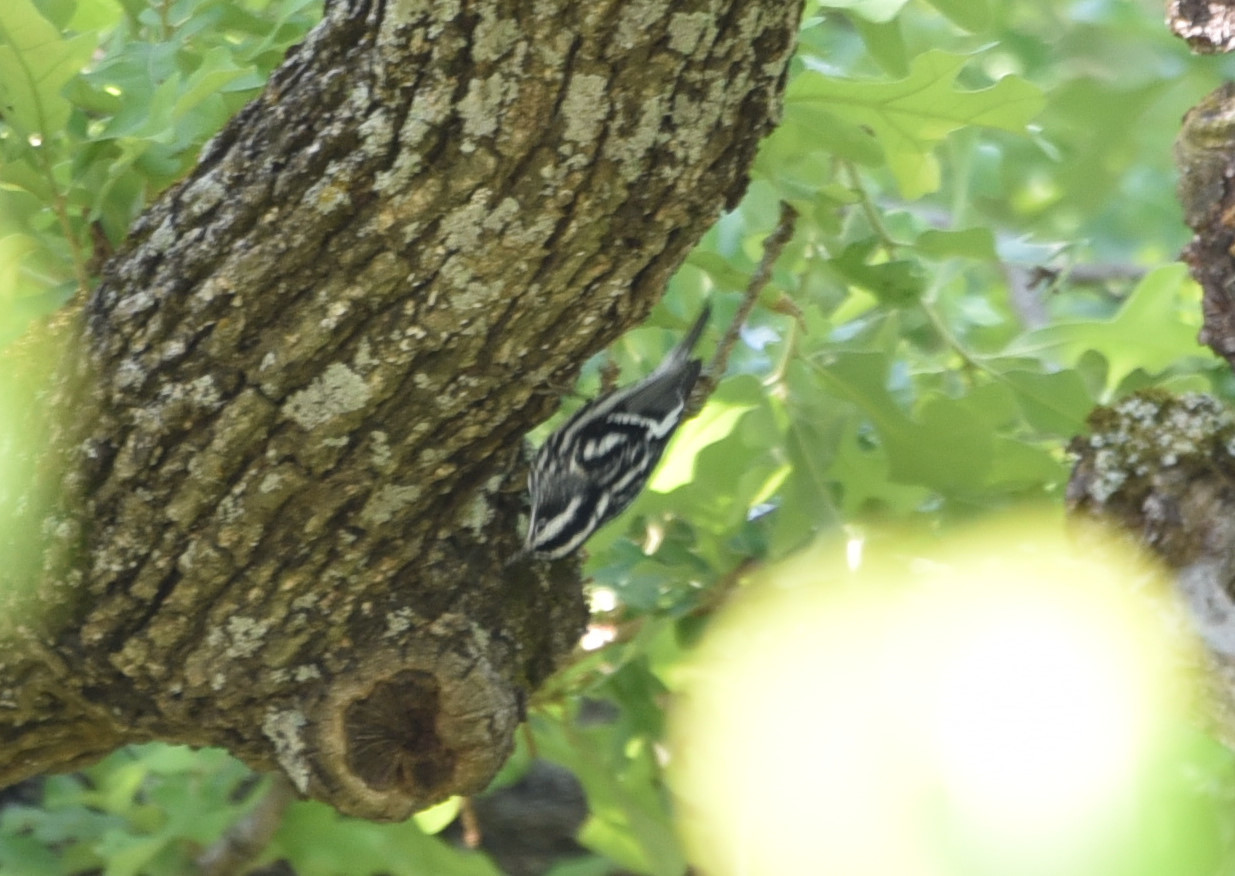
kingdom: Animalia
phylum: Chordata
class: Aves
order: Passeriformes
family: Parulidae
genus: Mniotilta
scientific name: Mniotilta varia
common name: Black-and-white warbler
